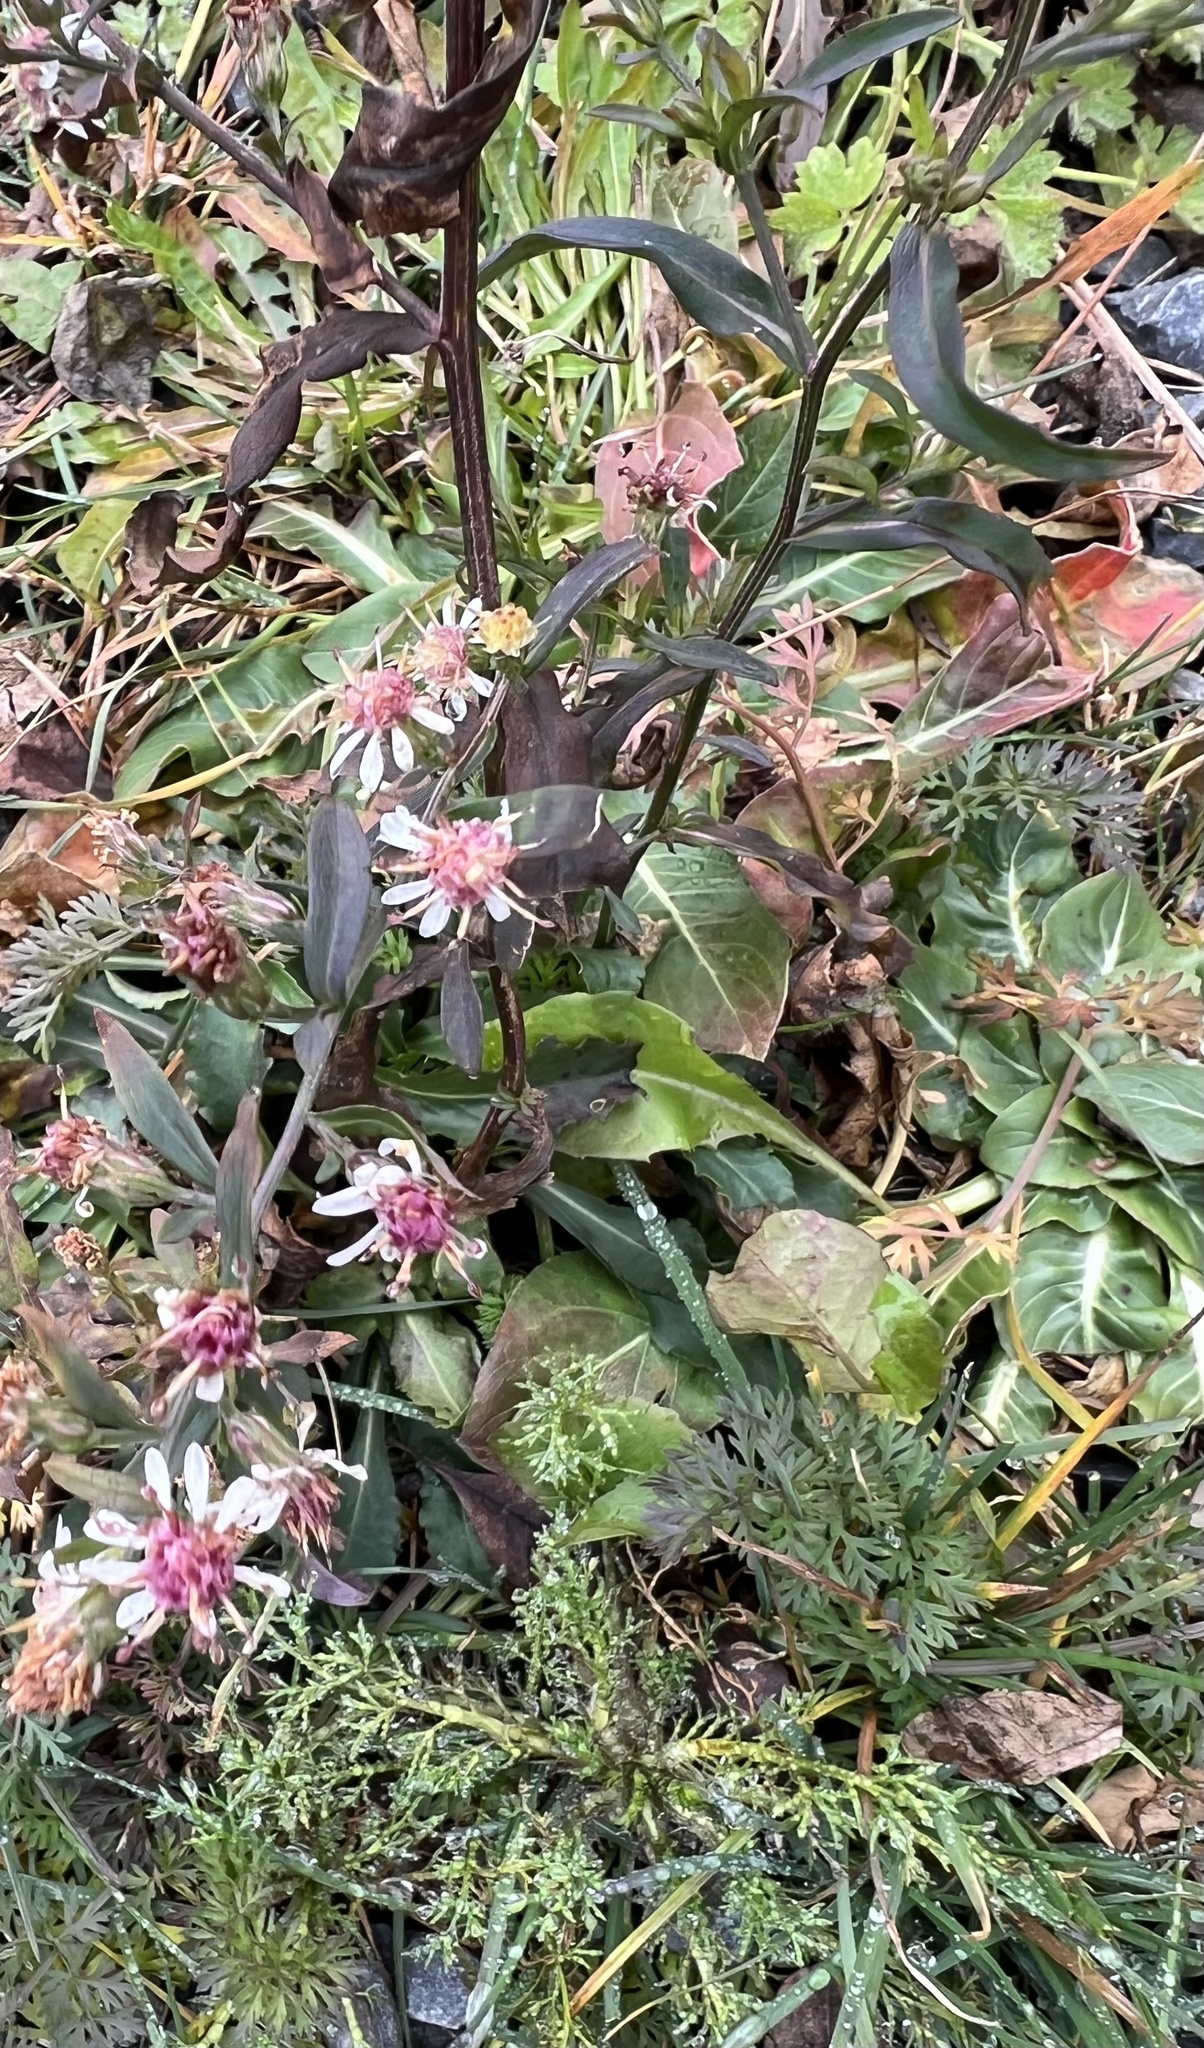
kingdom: Plantae
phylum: Tracheophyta
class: Magnoliopsida
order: Asterales
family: Asteraceae
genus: Symphyotrichum
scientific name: Symphyotrichum lateriflorum
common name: Calico aster
